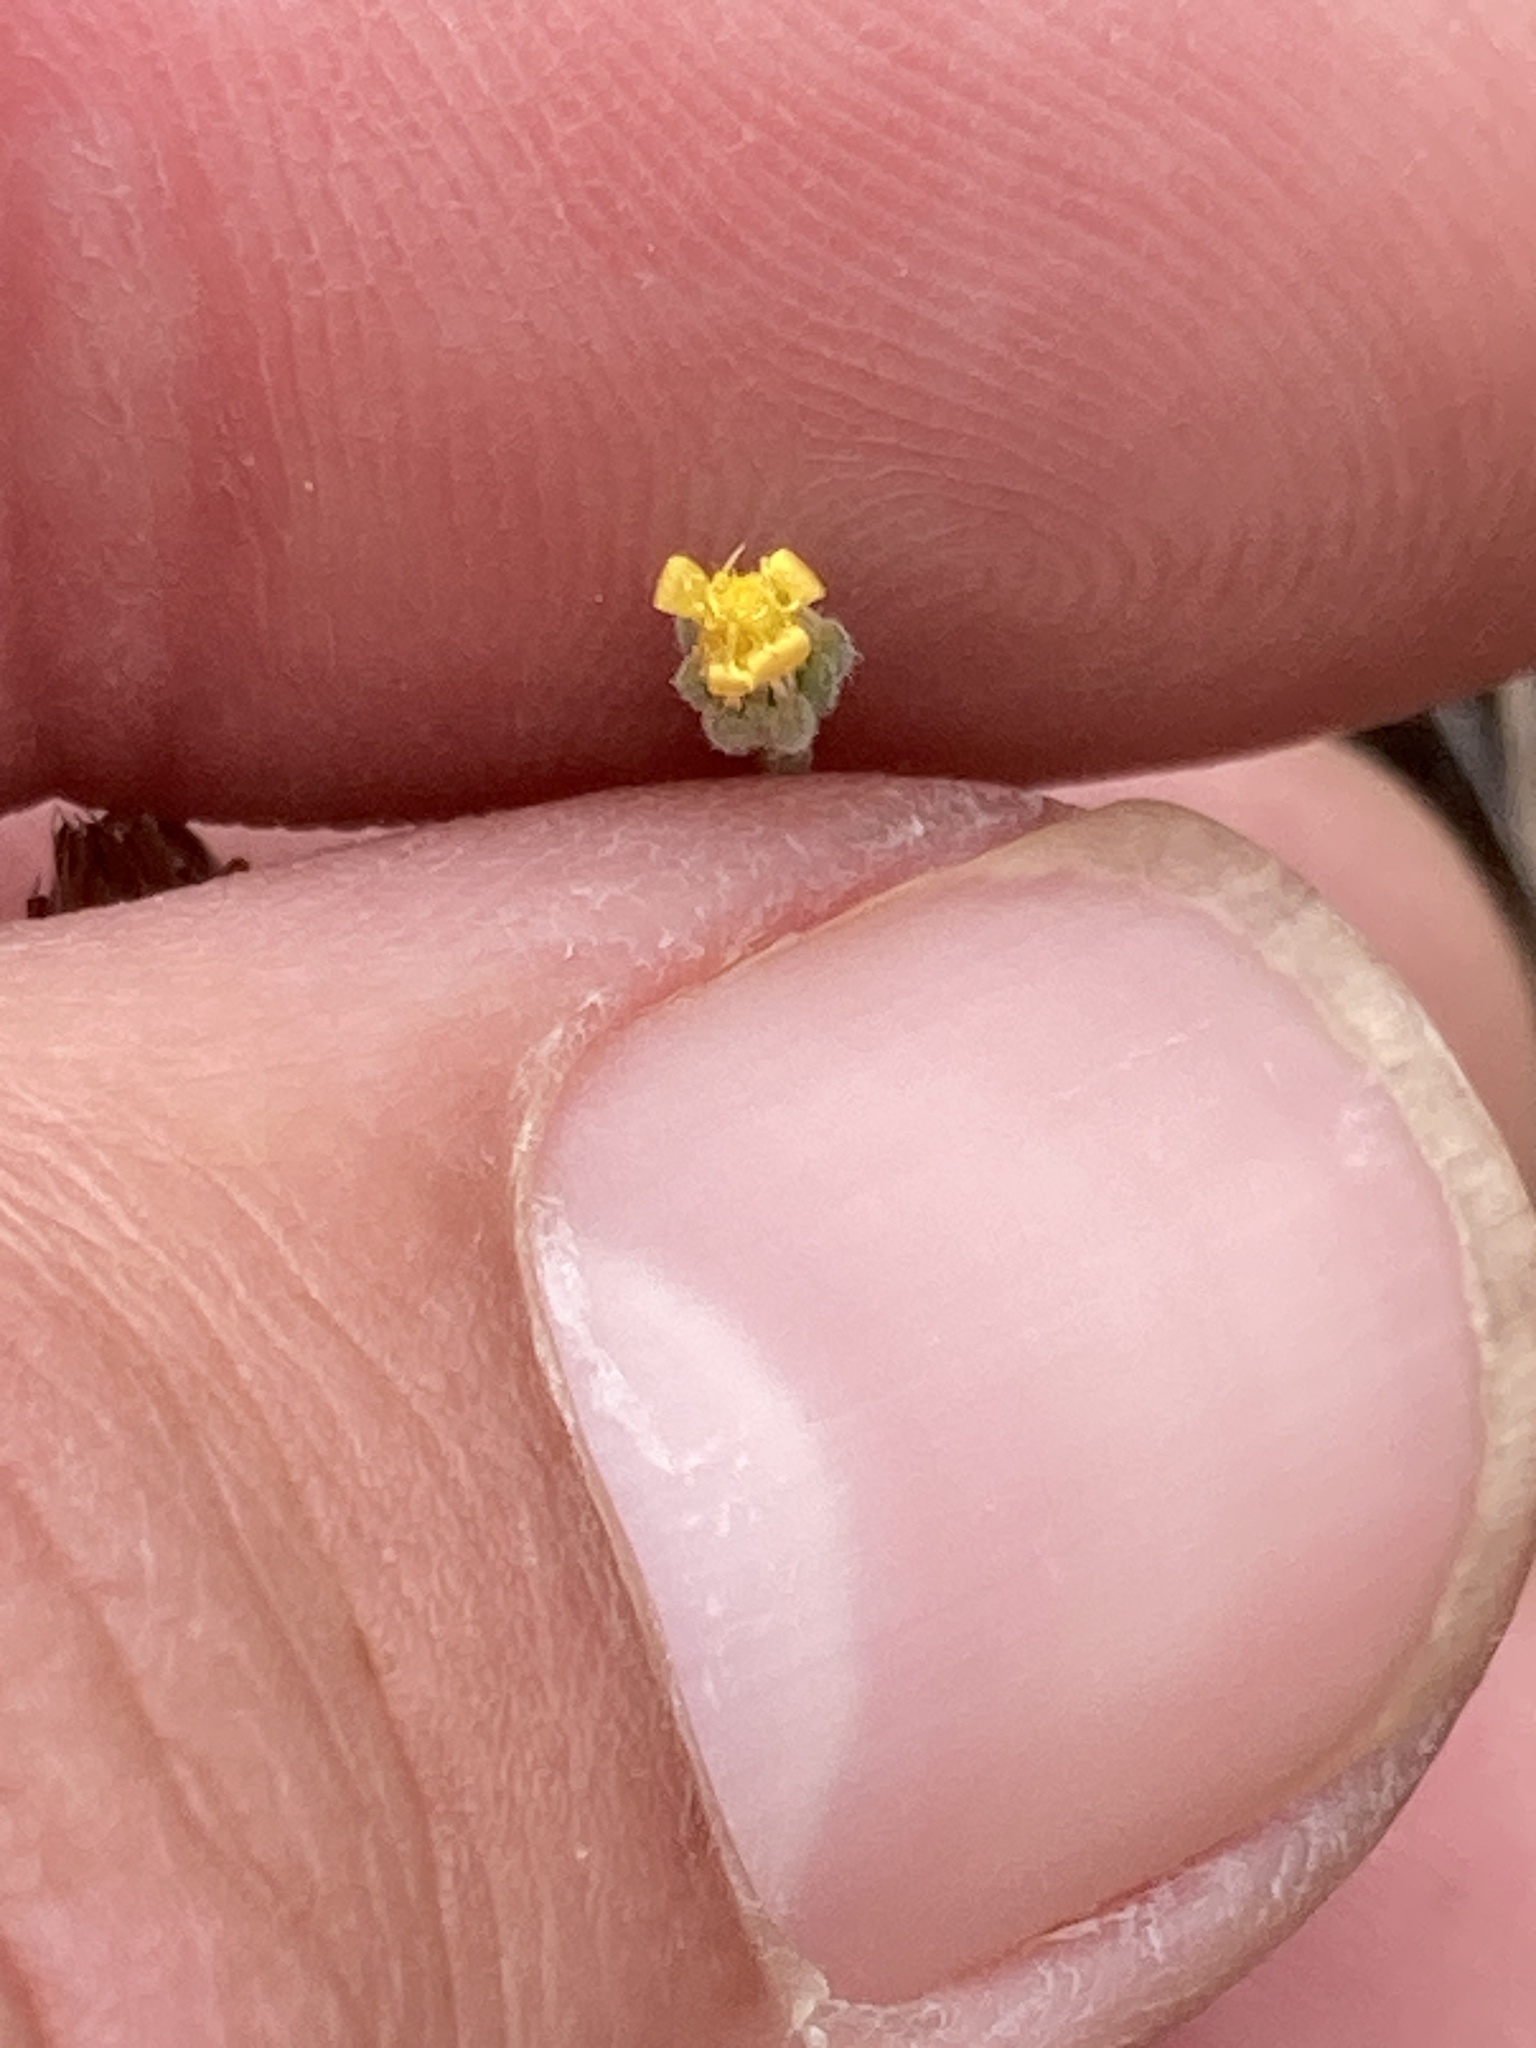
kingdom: Plantae
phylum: Tracheophyta
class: Magnoliopsida
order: Asterales
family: Asteraceae
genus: Rigiopappus
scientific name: Rigiopappus leptocladus
